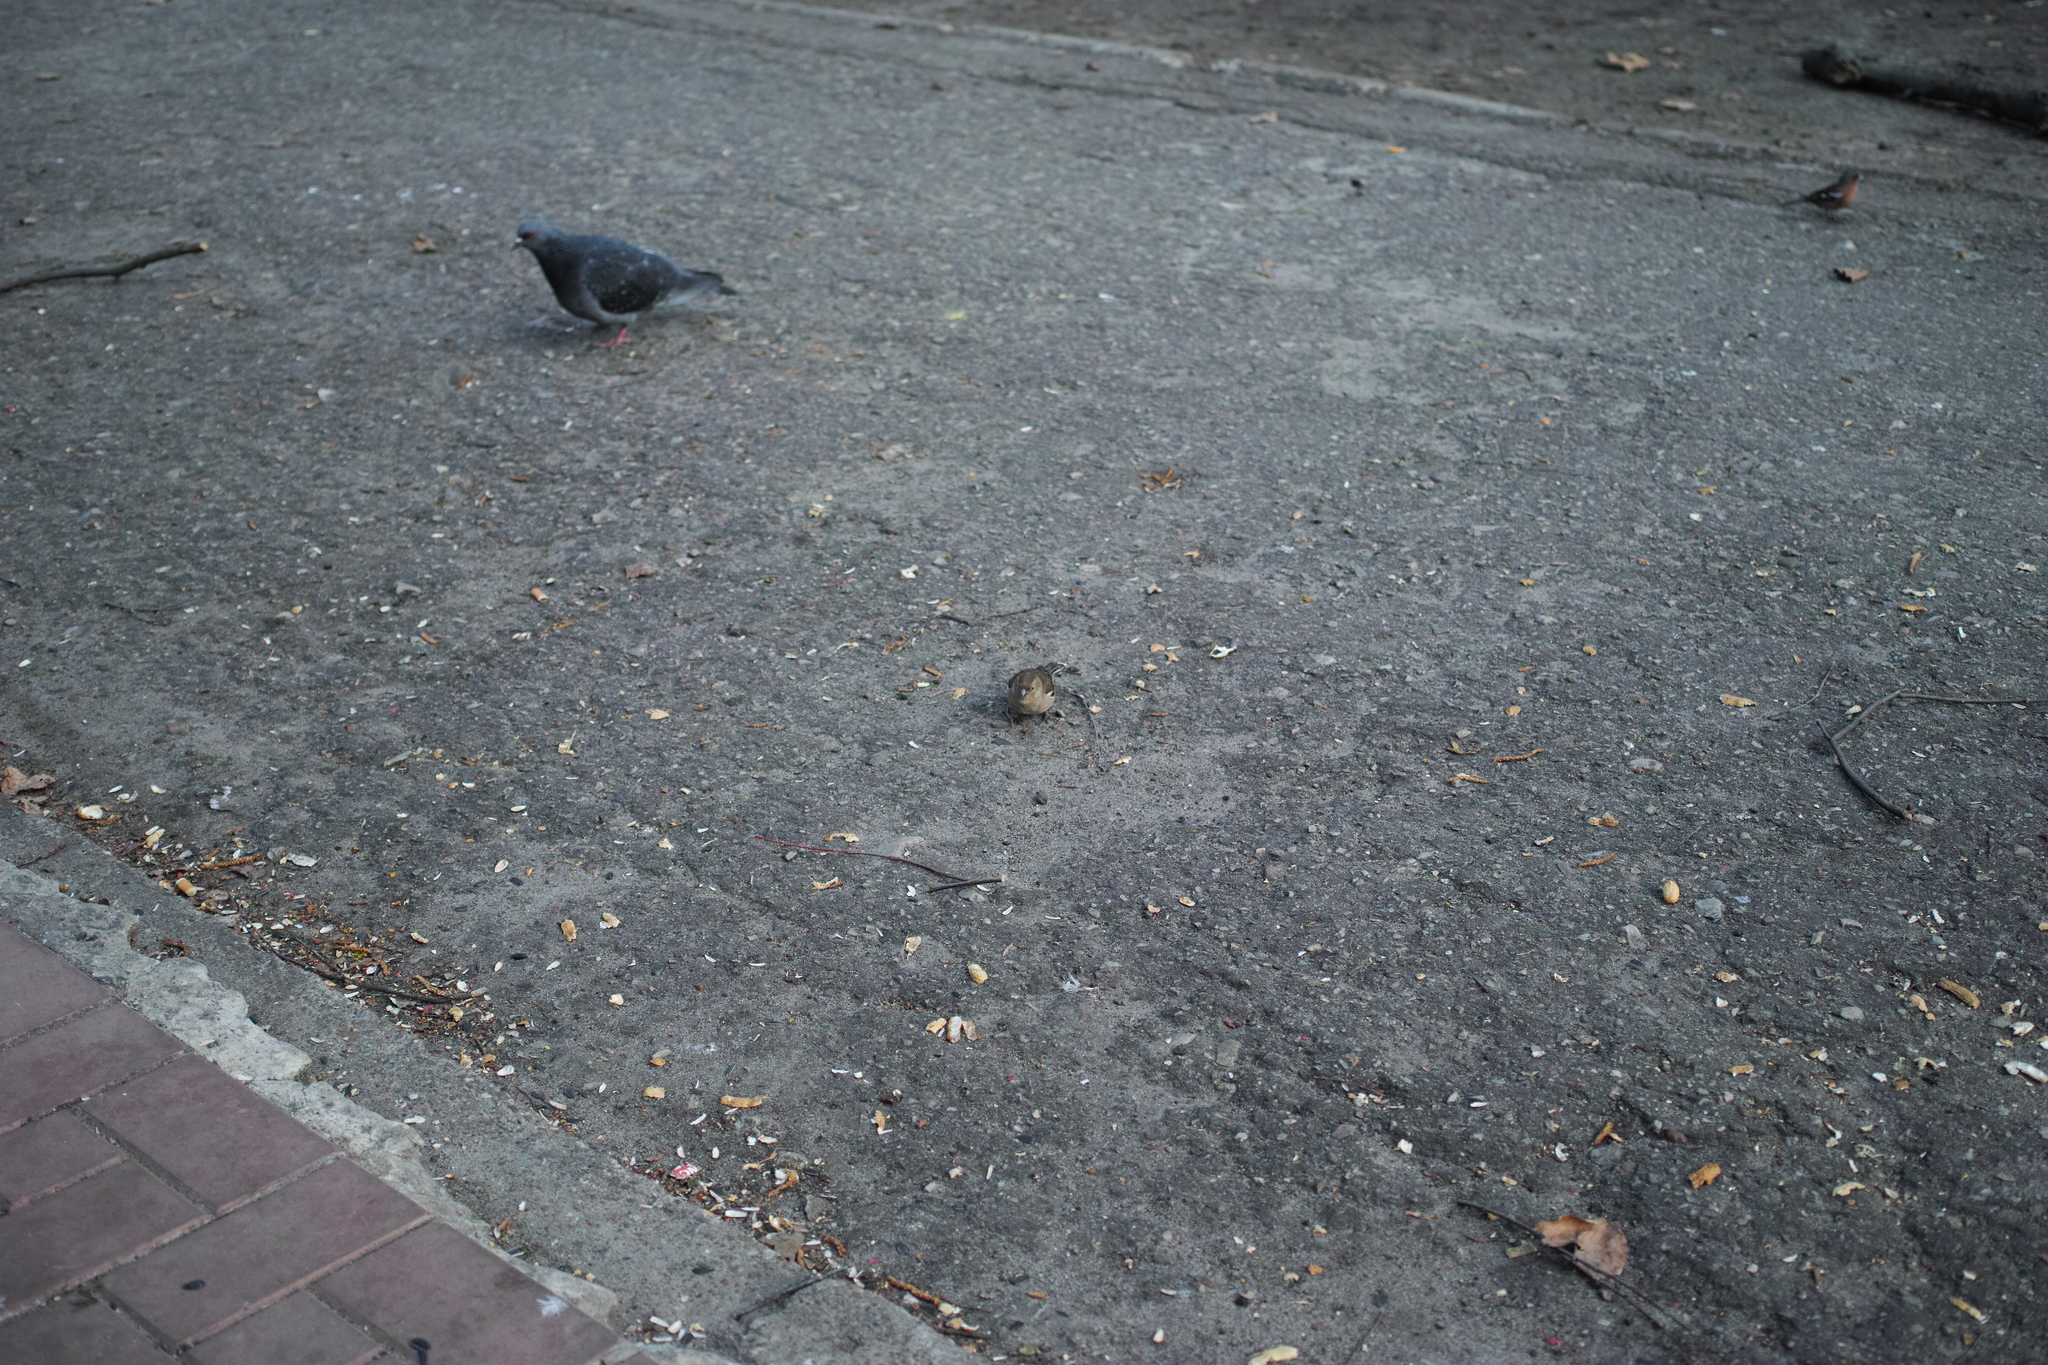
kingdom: Animalia
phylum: Chordata
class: Aves
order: Passeriformes
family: Fringillidae
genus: Fringilla
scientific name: Fringilla coelebs
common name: Common chaffinch
